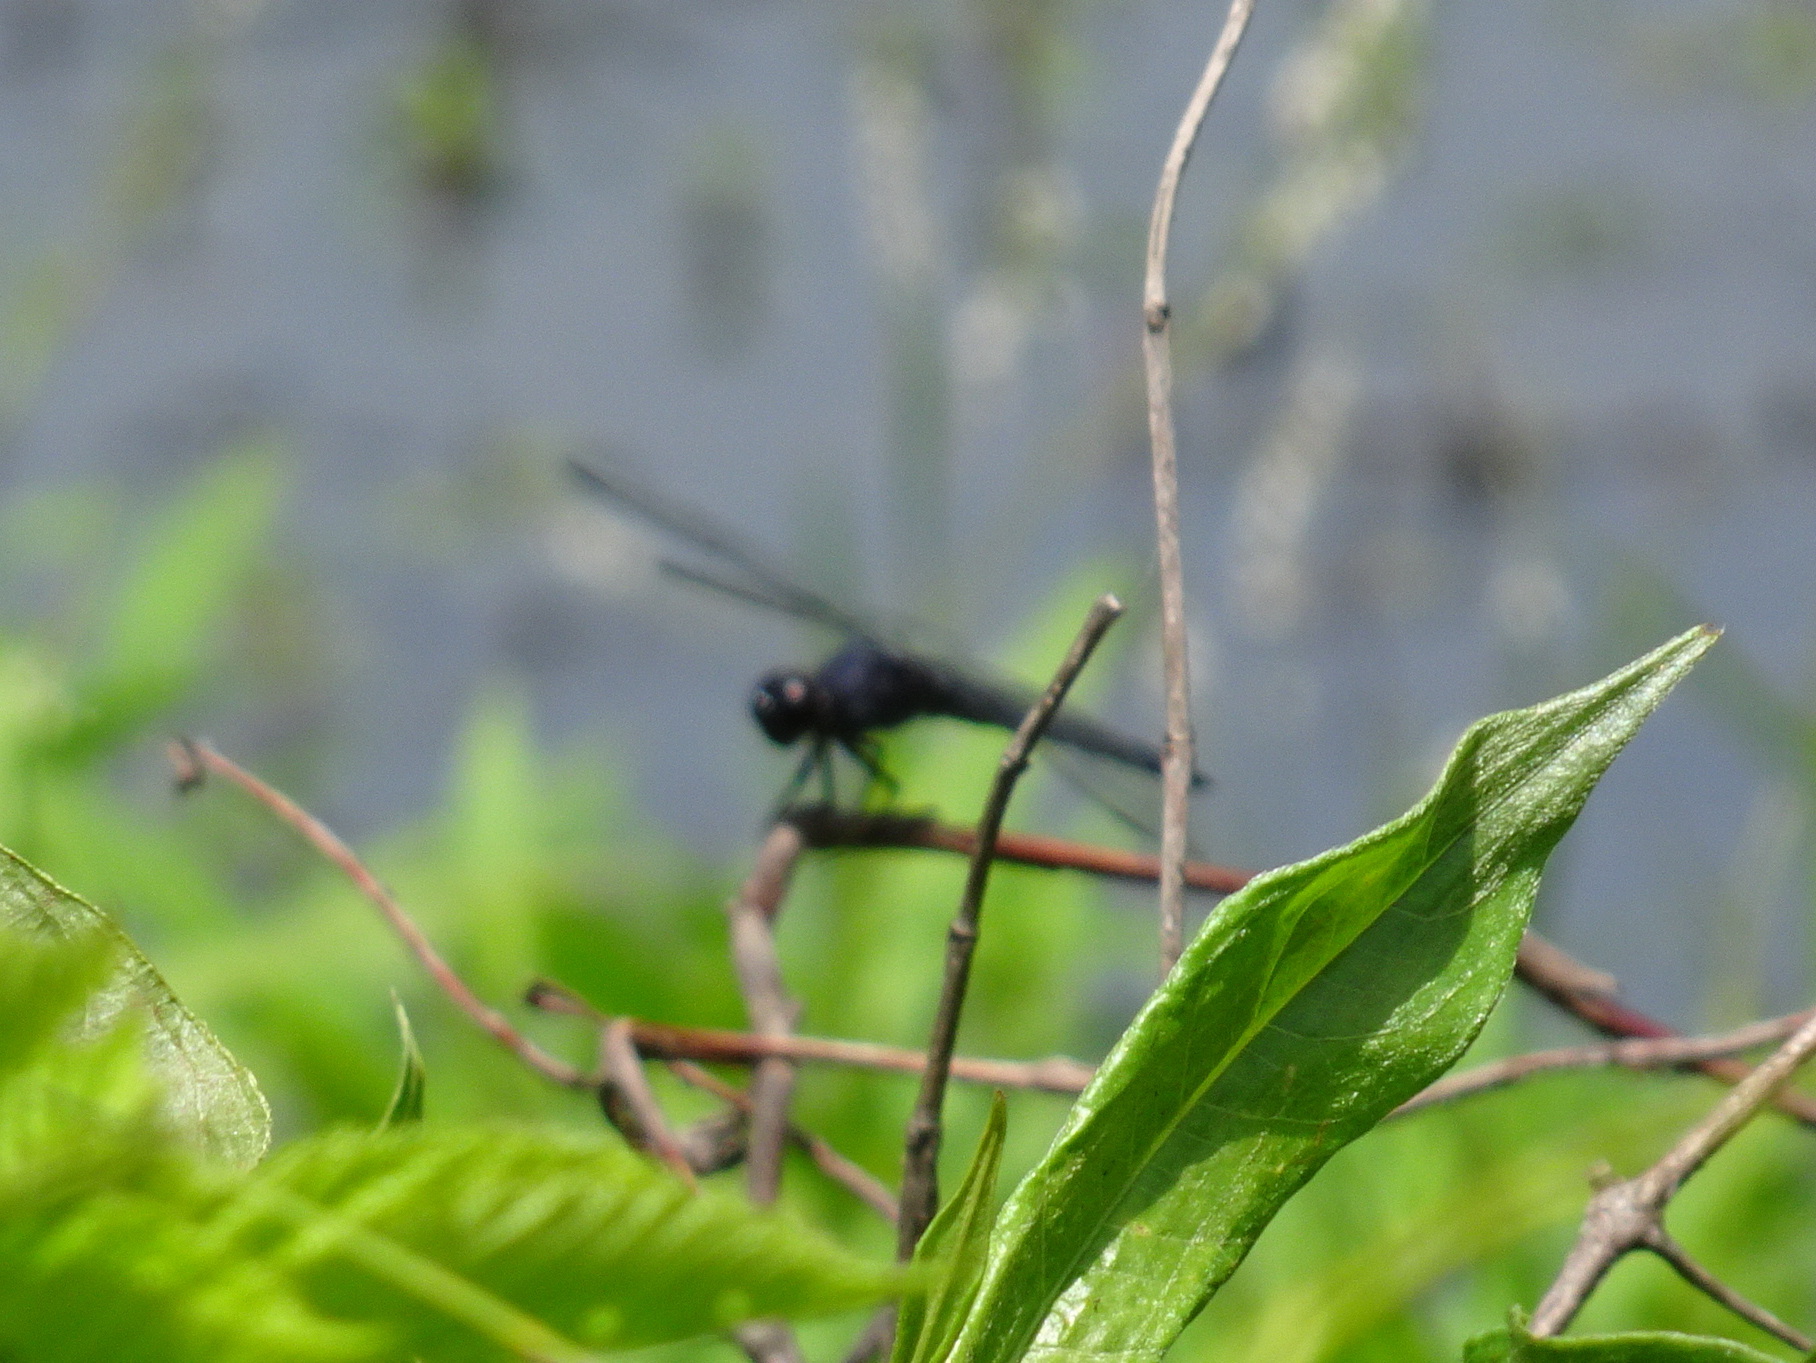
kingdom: Animalia
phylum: Arthropoda
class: Insecta
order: Odonata
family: Libellulidae
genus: Libellula
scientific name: Libellula incesta
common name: Slaty skimmer
